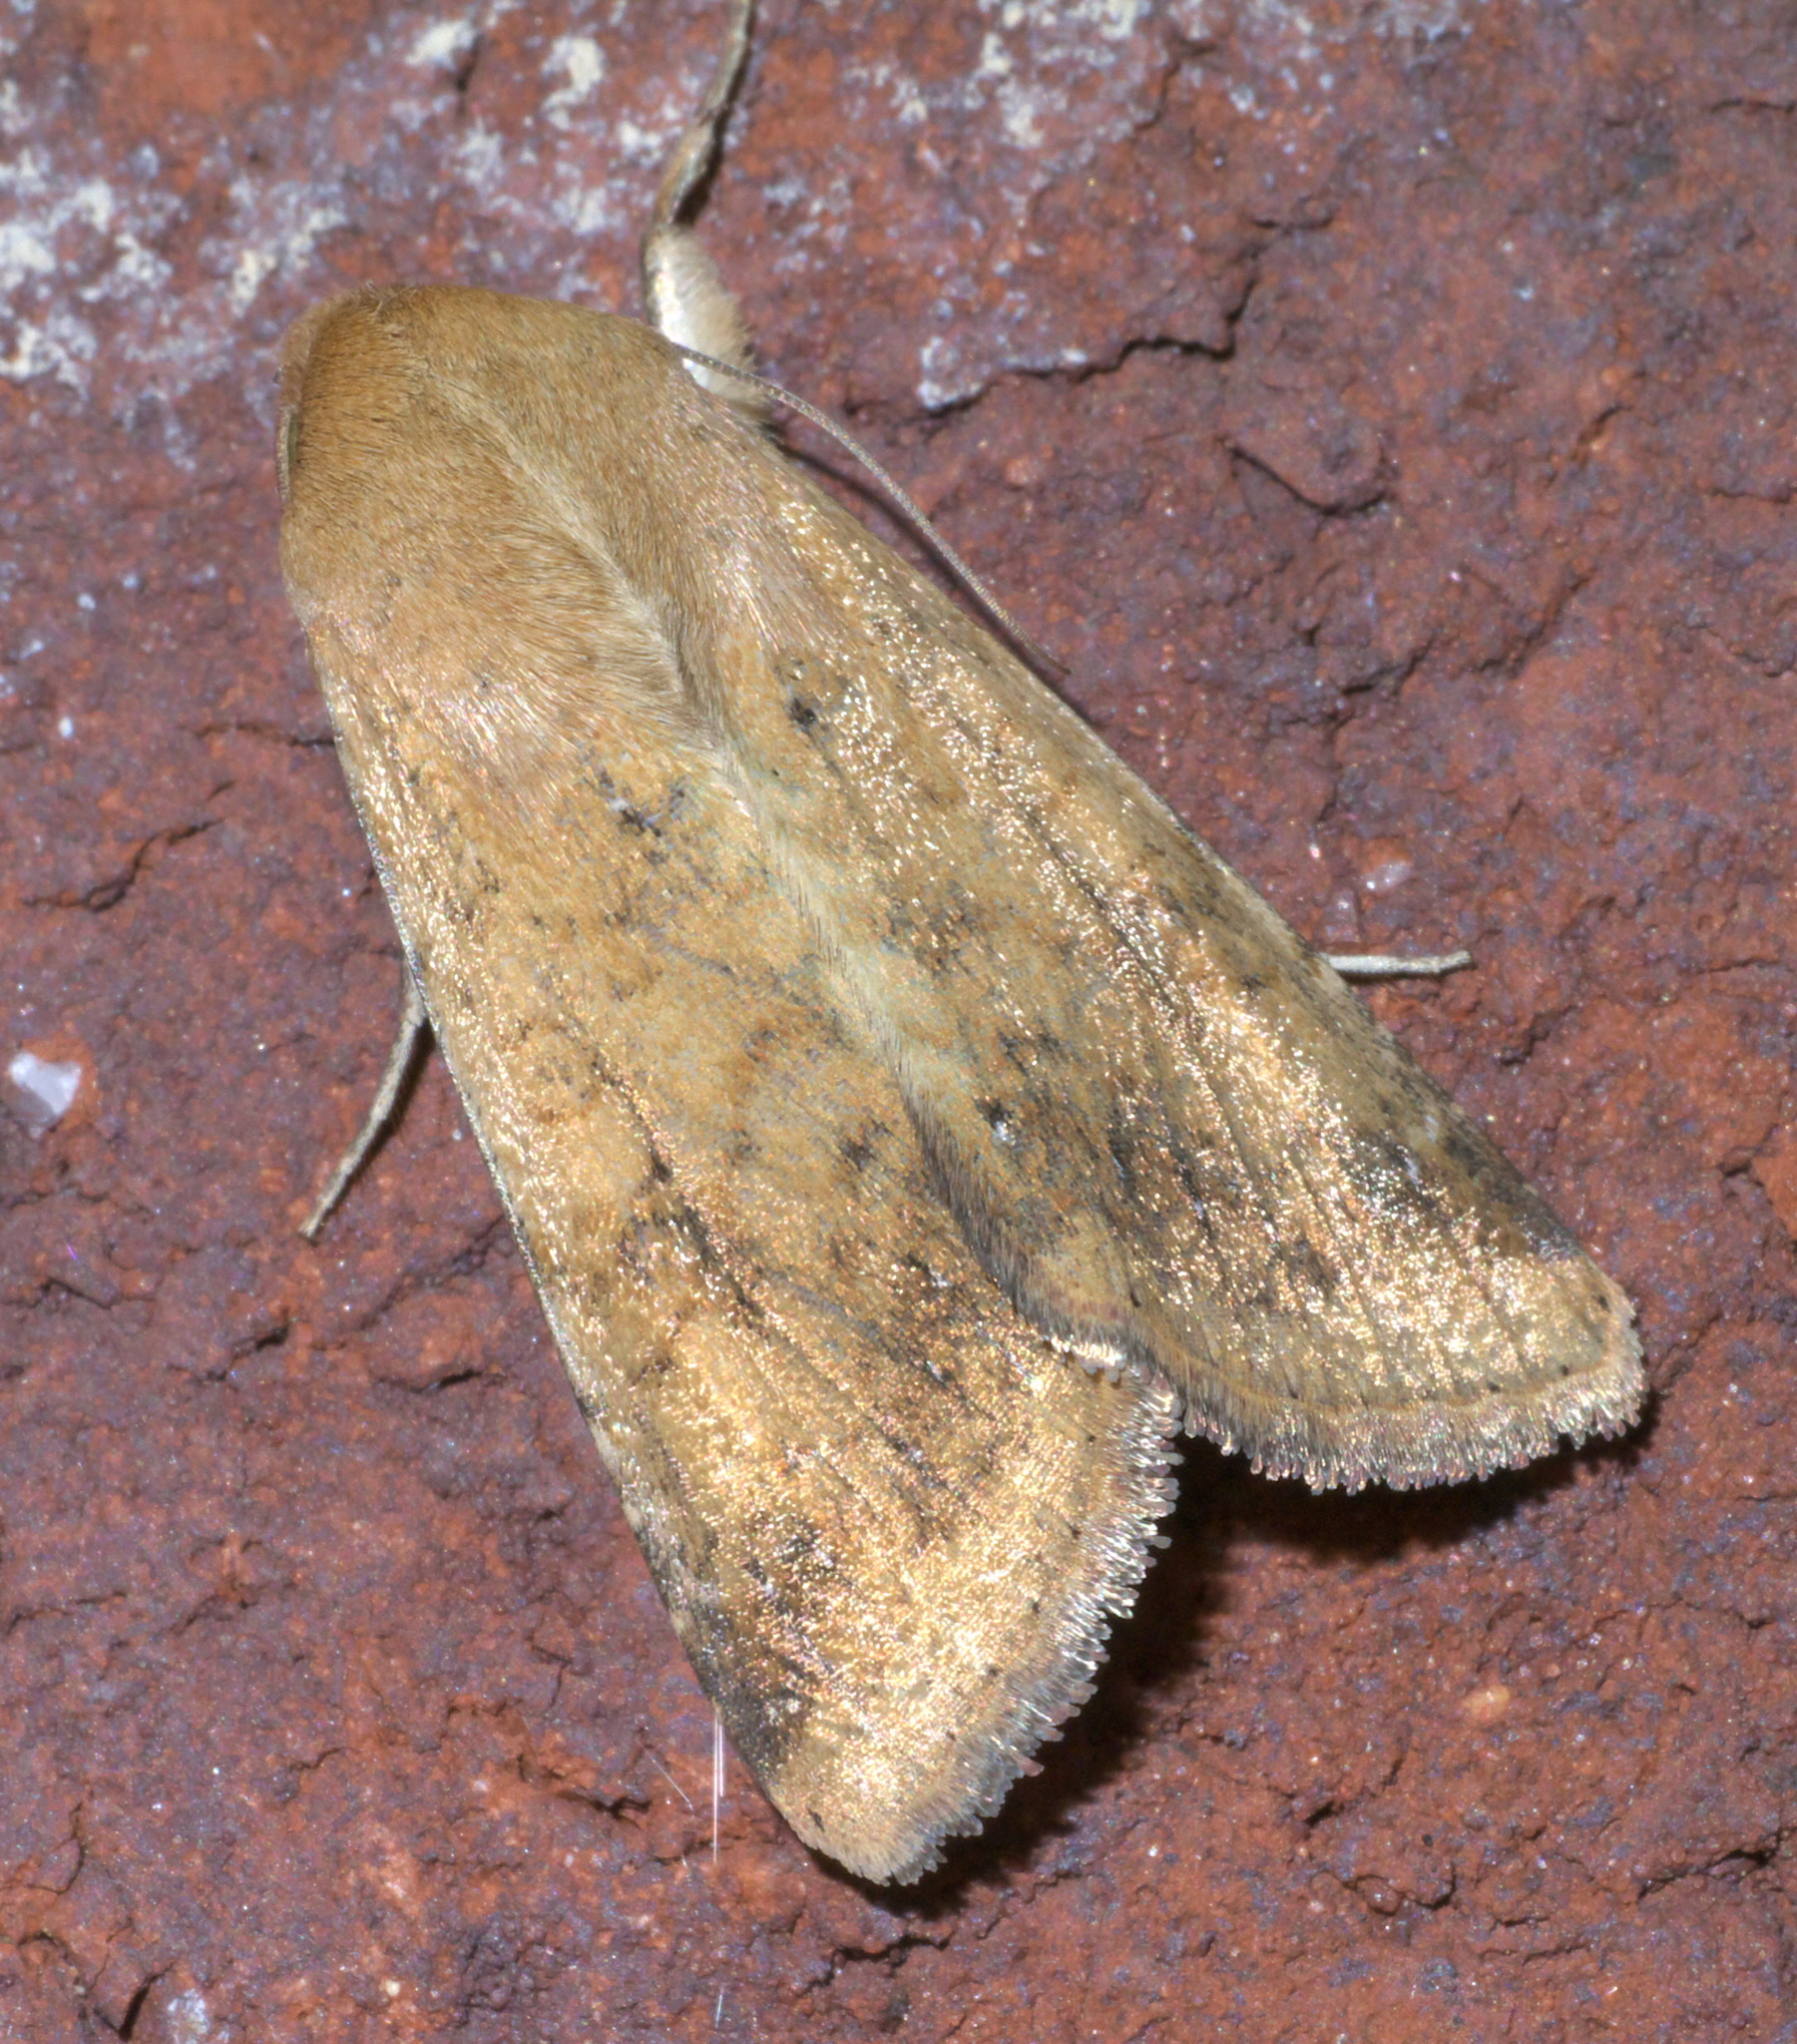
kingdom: Animalia
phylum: Arthropoda
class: Insecta
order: Lepidoptera
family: Noctuidae
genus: Helicoverpa
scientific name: Helicoverpa zea
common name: Bollworm
